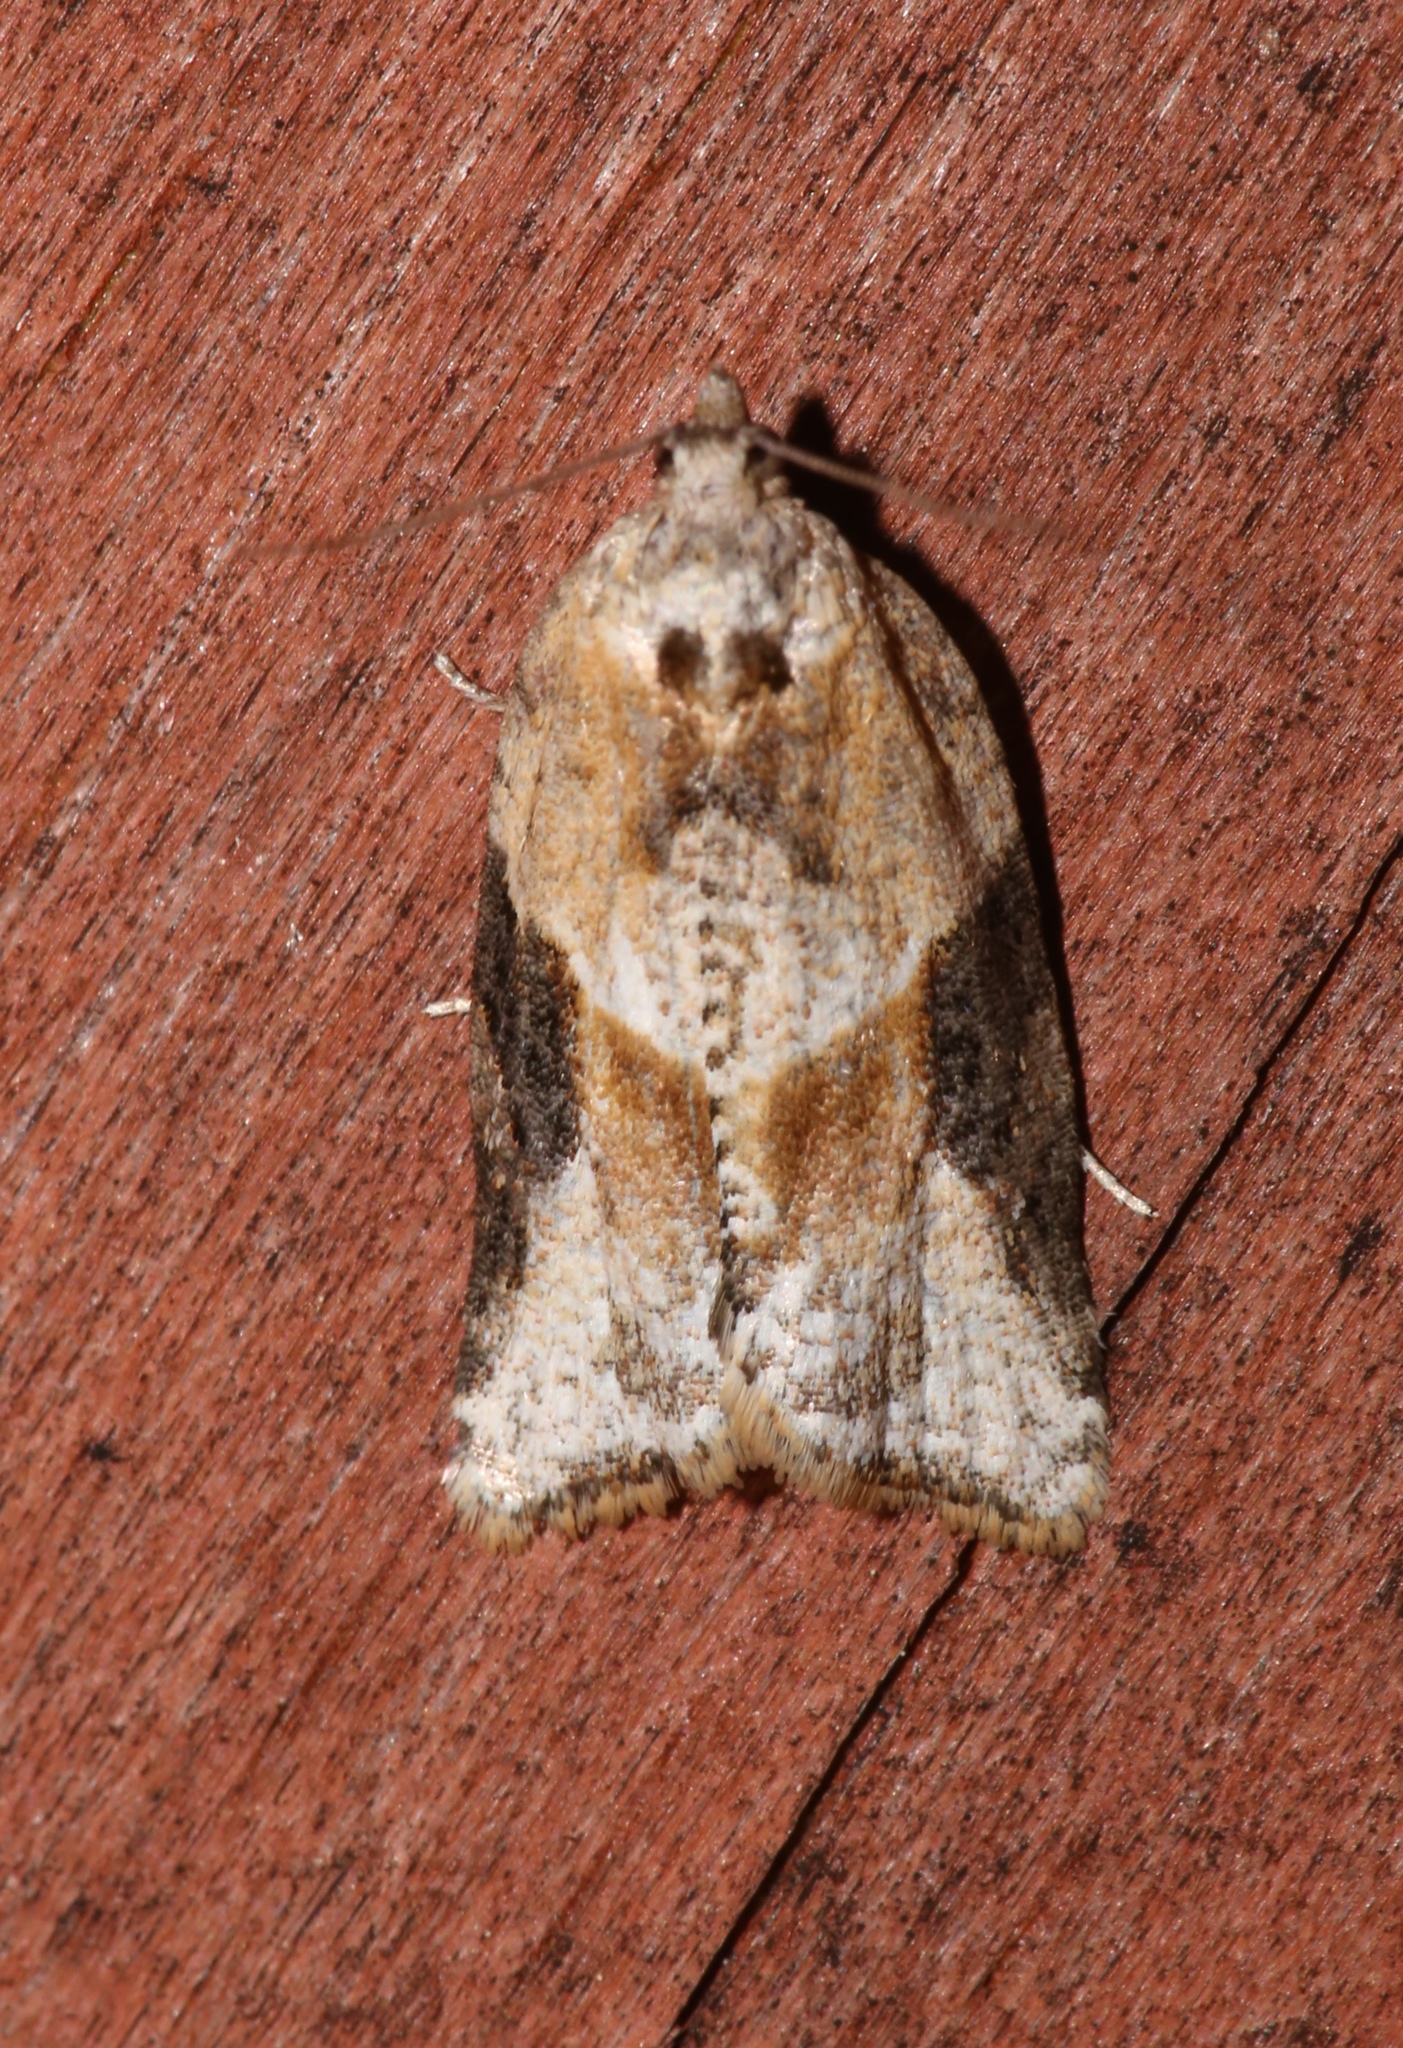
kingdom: Animalia
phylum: Arthropoda
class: Insecta
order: Lepidoptera
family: Tortricidae
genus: Argyrotaenia
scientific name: Argyrotaenia mariana
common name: Gray-banded leafroller moth
